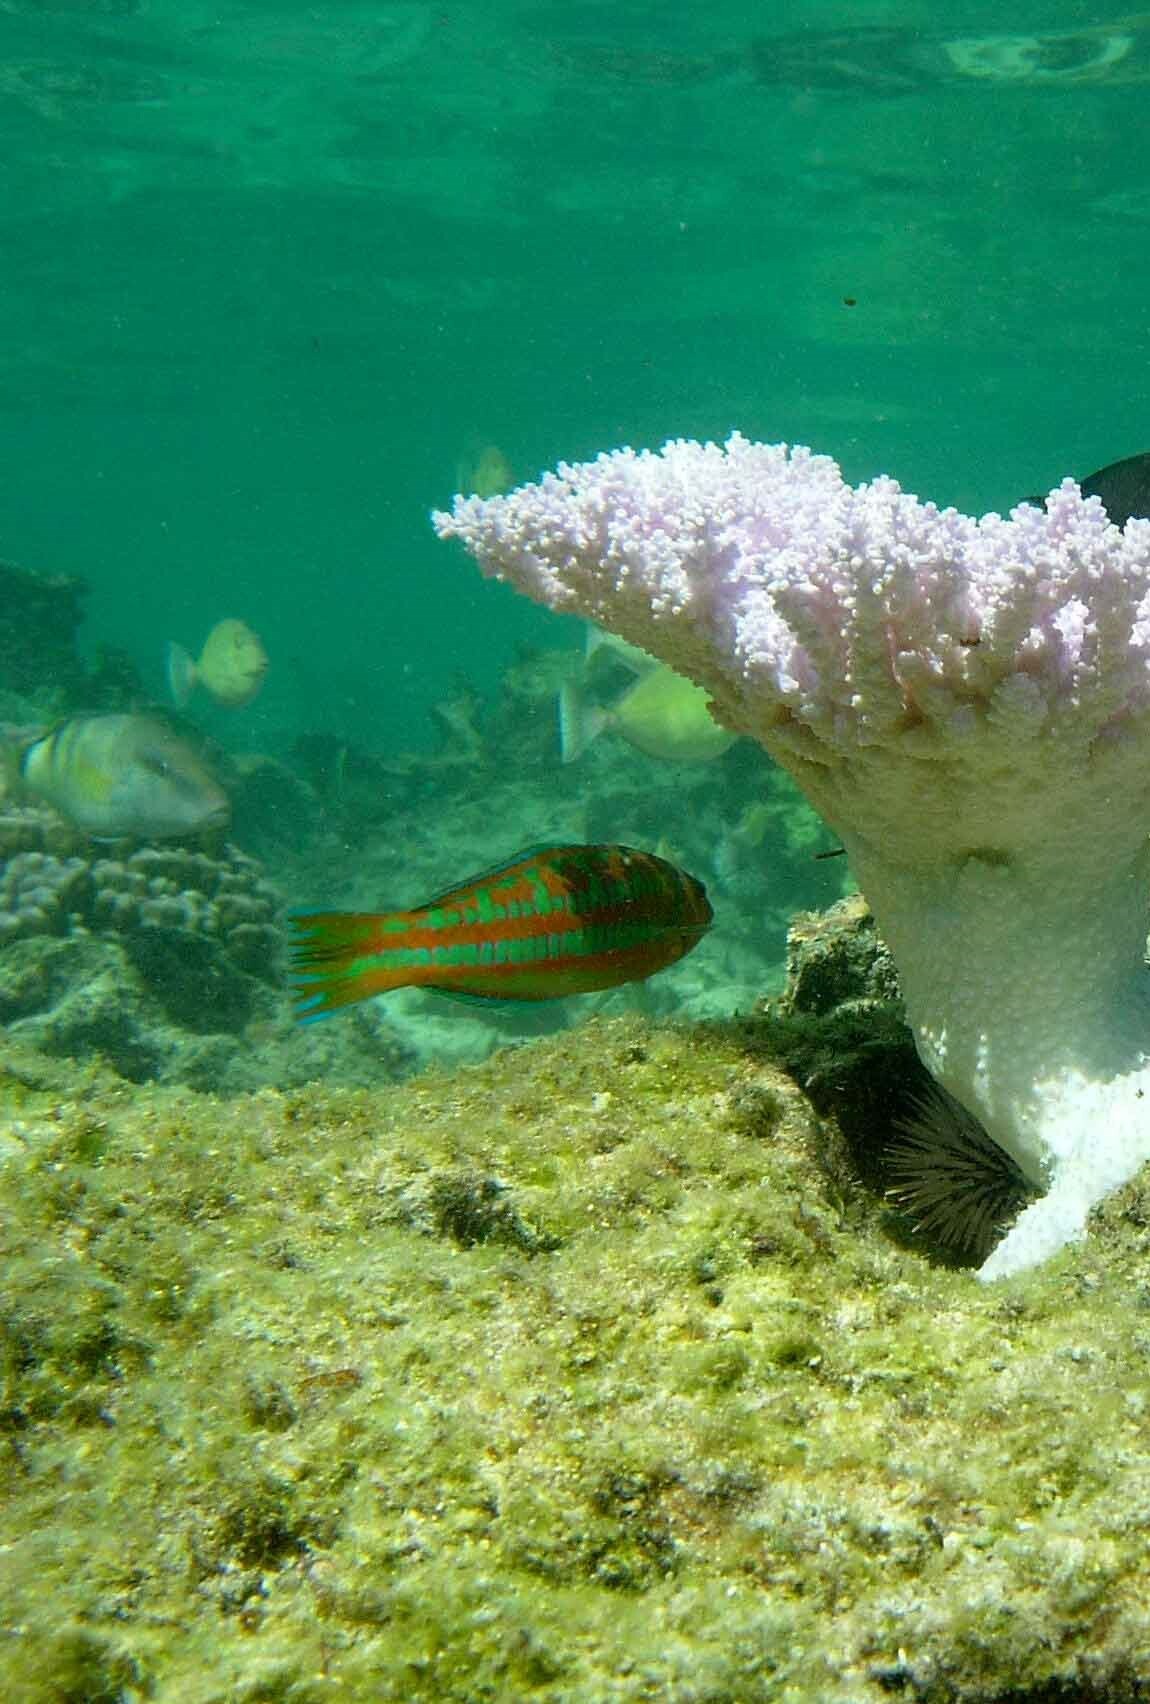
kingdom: Animalia
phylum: Chordata
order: Perciformes
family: Labridae
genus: Thalassoma
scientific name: Thalassoma trilobatum
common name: Christmas wrasse
